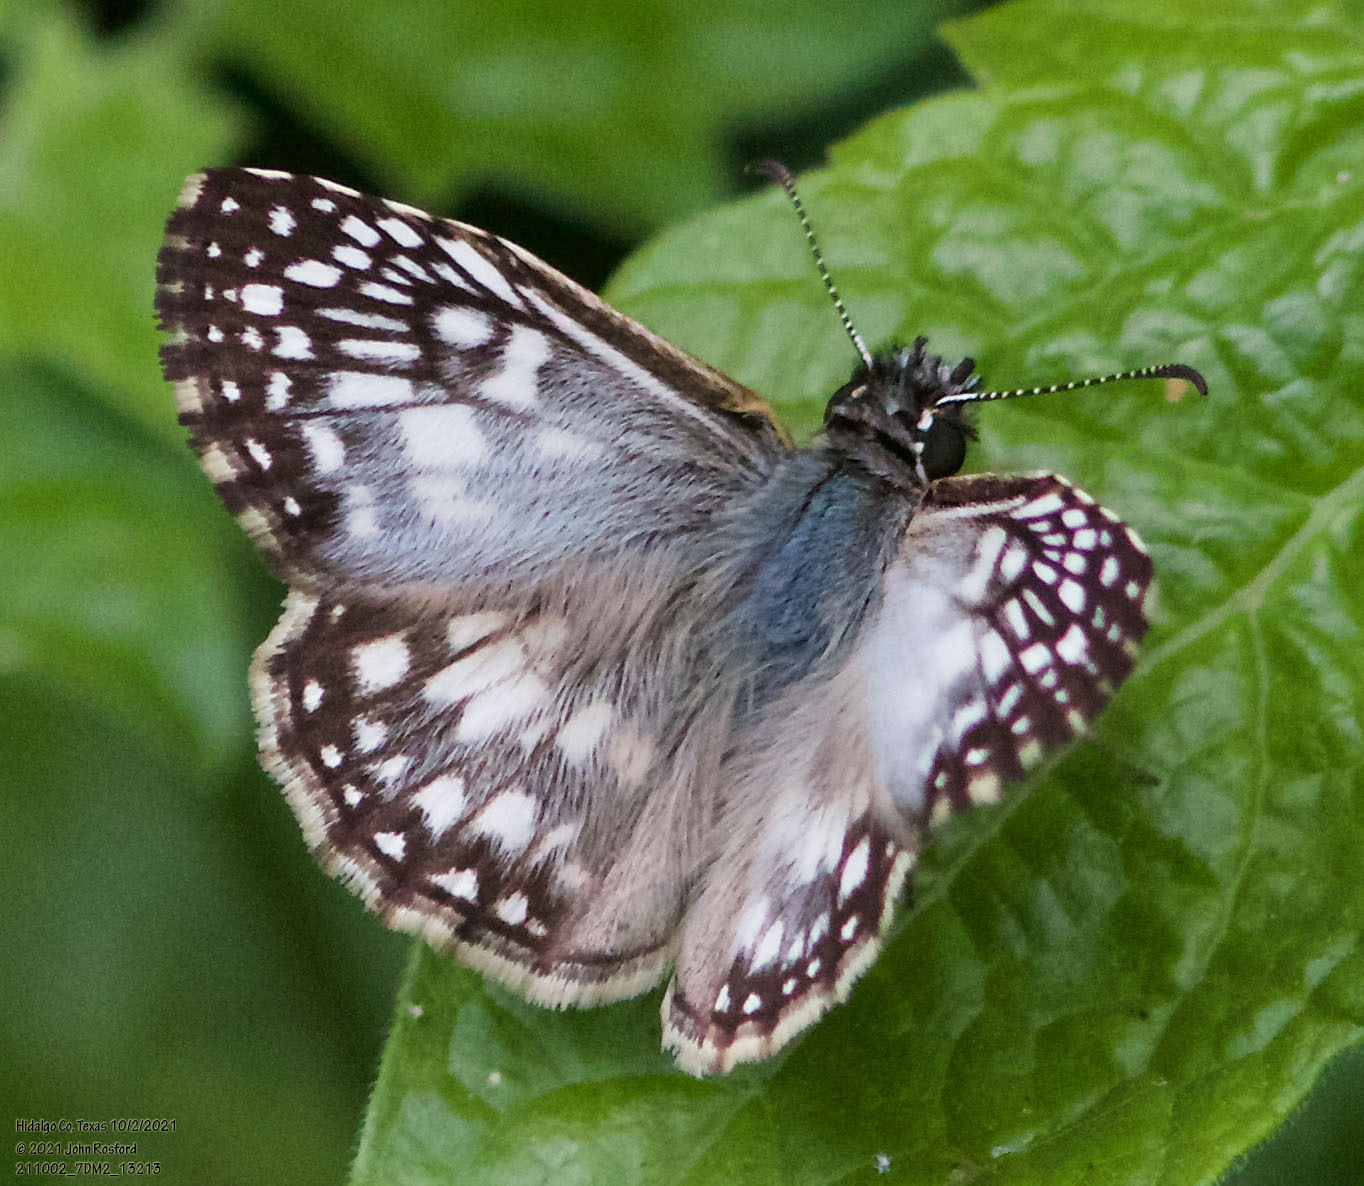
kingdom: Animalia
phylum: Arthropoda
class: Insecta
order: Lepidoptera
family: Hesperiidae
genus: Pyrgus
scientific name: Pyrgus oileus
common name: Tropical checkered-skipper
